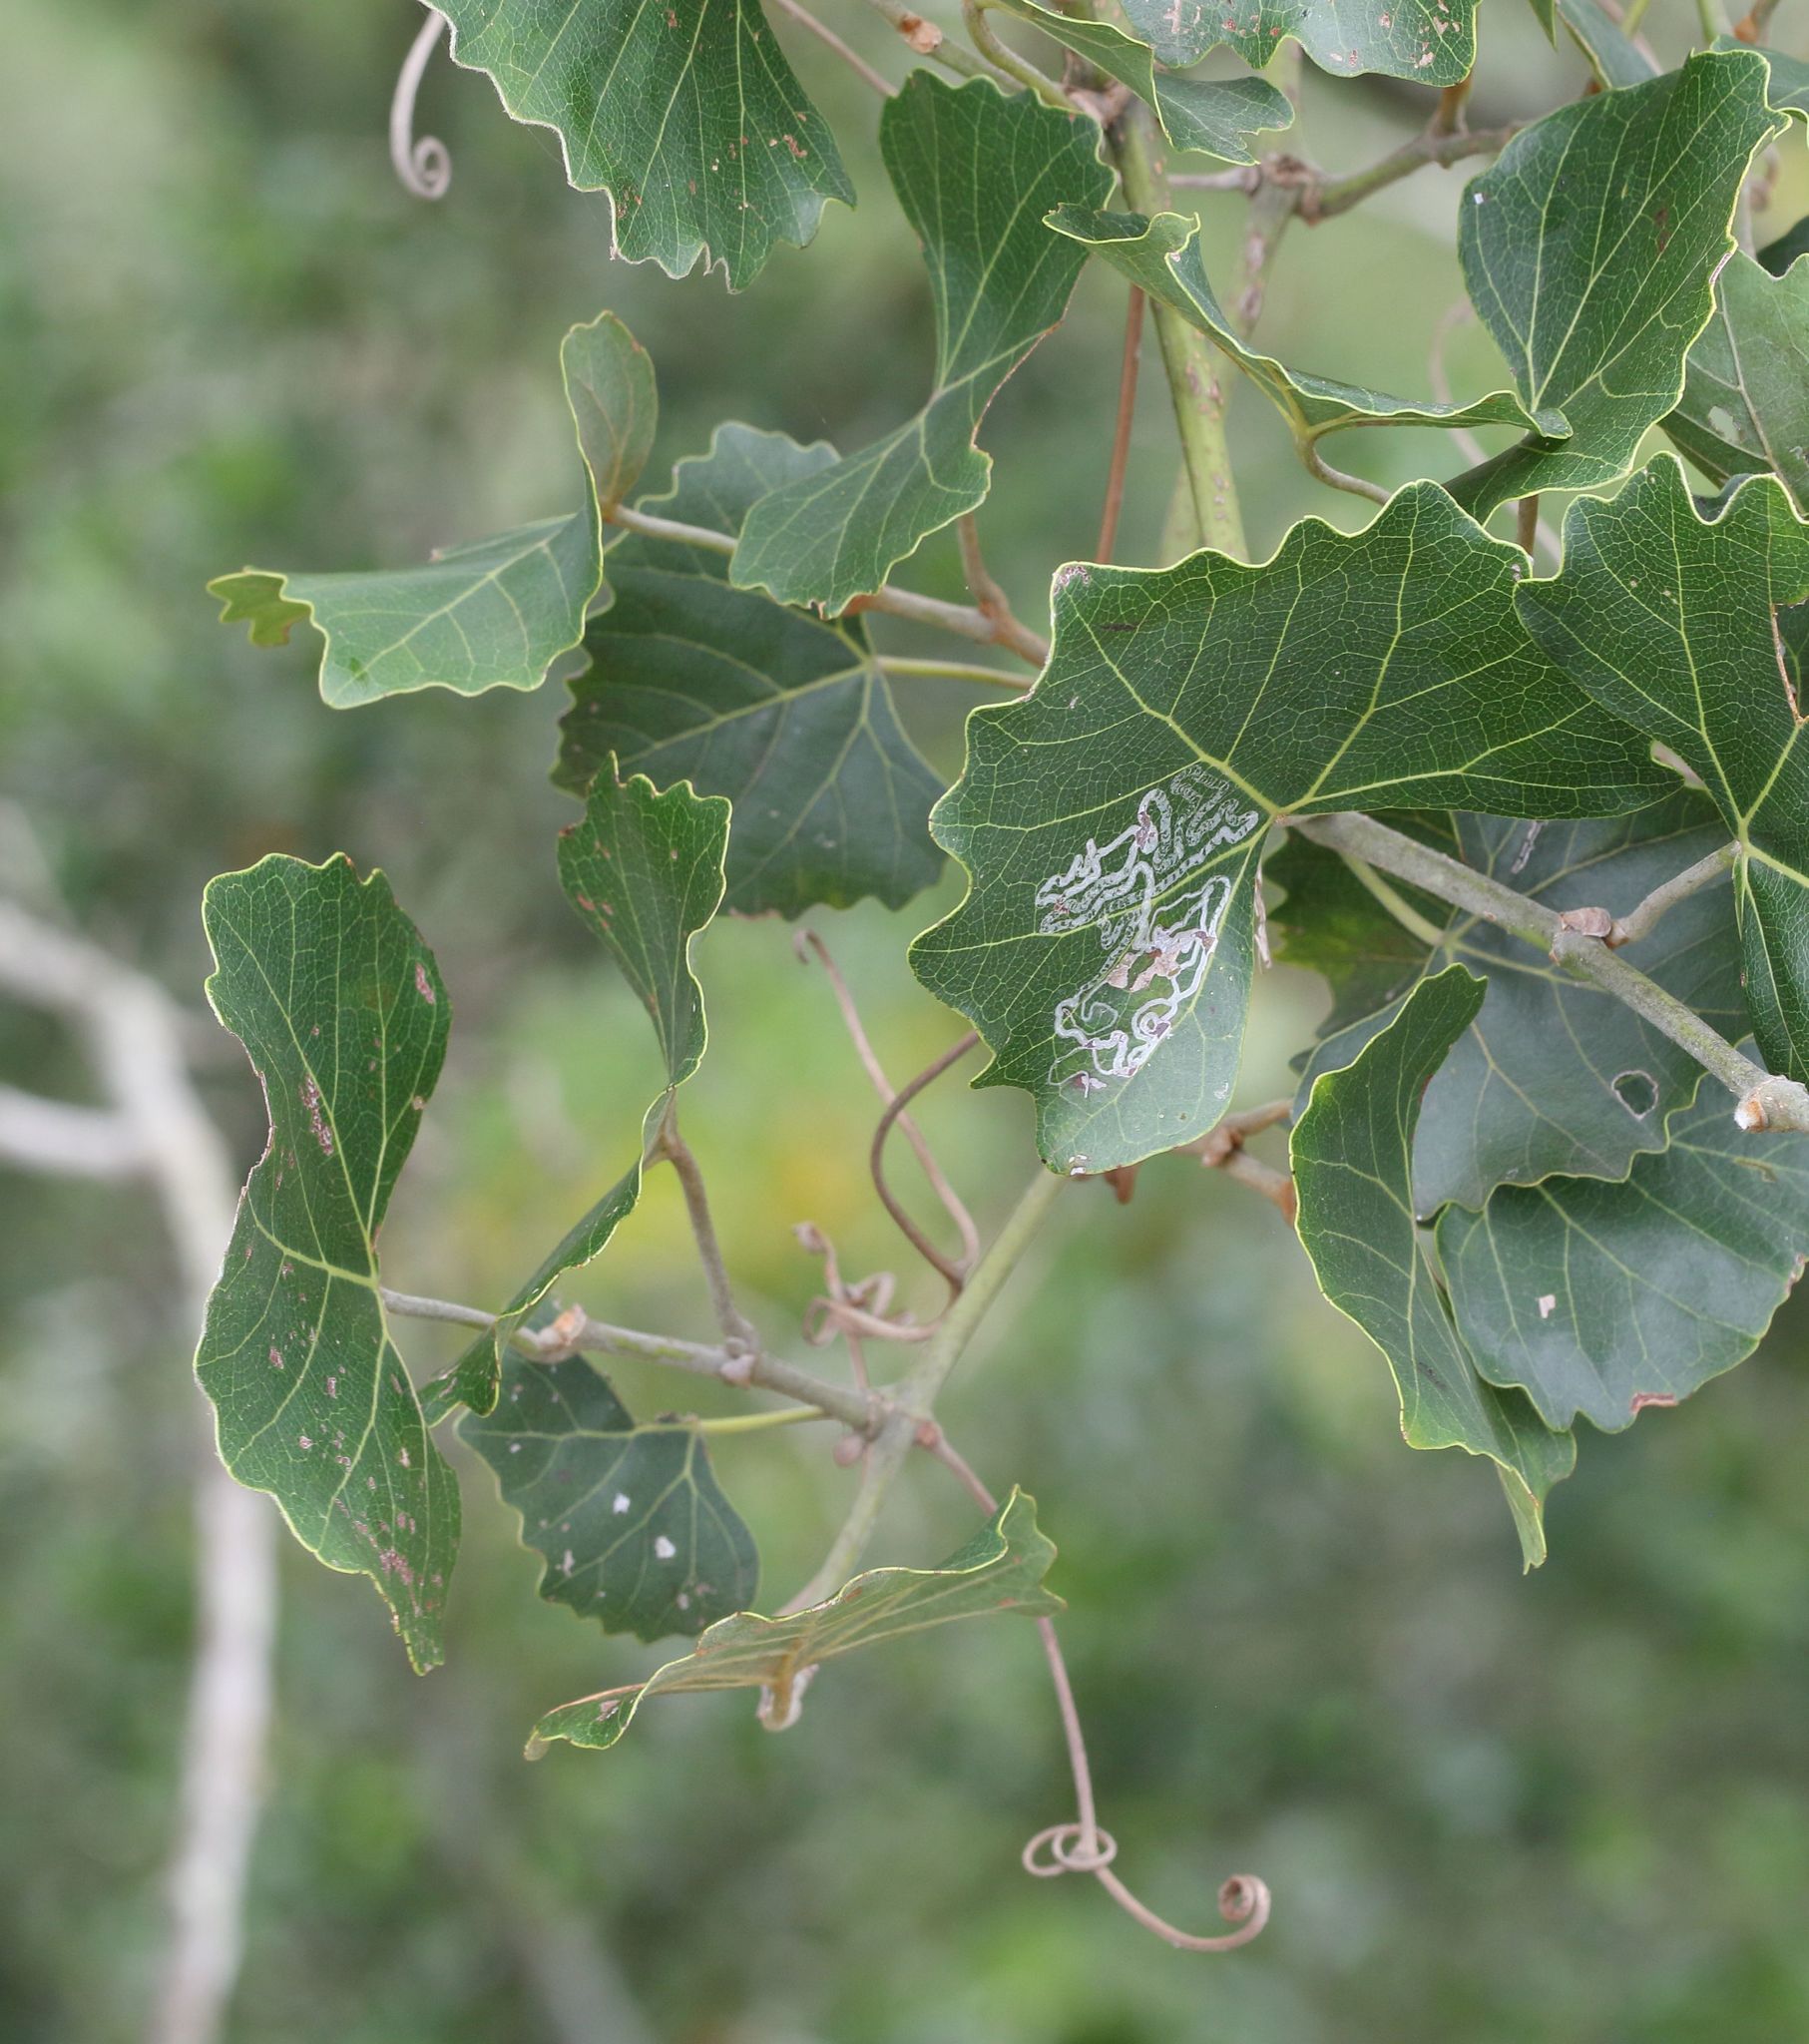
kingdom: Plantae
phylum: Tracheophyta
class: Magnoliopsida
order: Vitales
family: Vitaceae
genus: Rhoicissus
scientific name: Rhoicissus tomentosa
